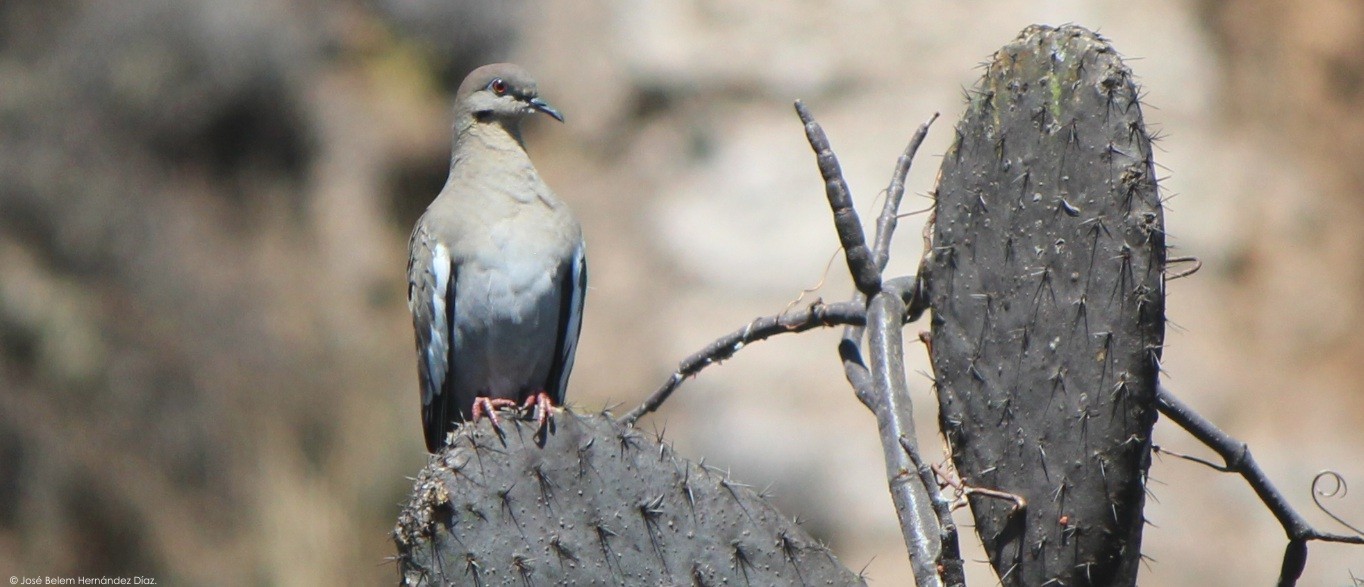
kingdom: Animalia
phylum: Chordata
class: Aves
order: Columbiformes
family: Columbidae
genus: Zenaida
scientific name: Zenaida asiatica
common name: White-winged dove
